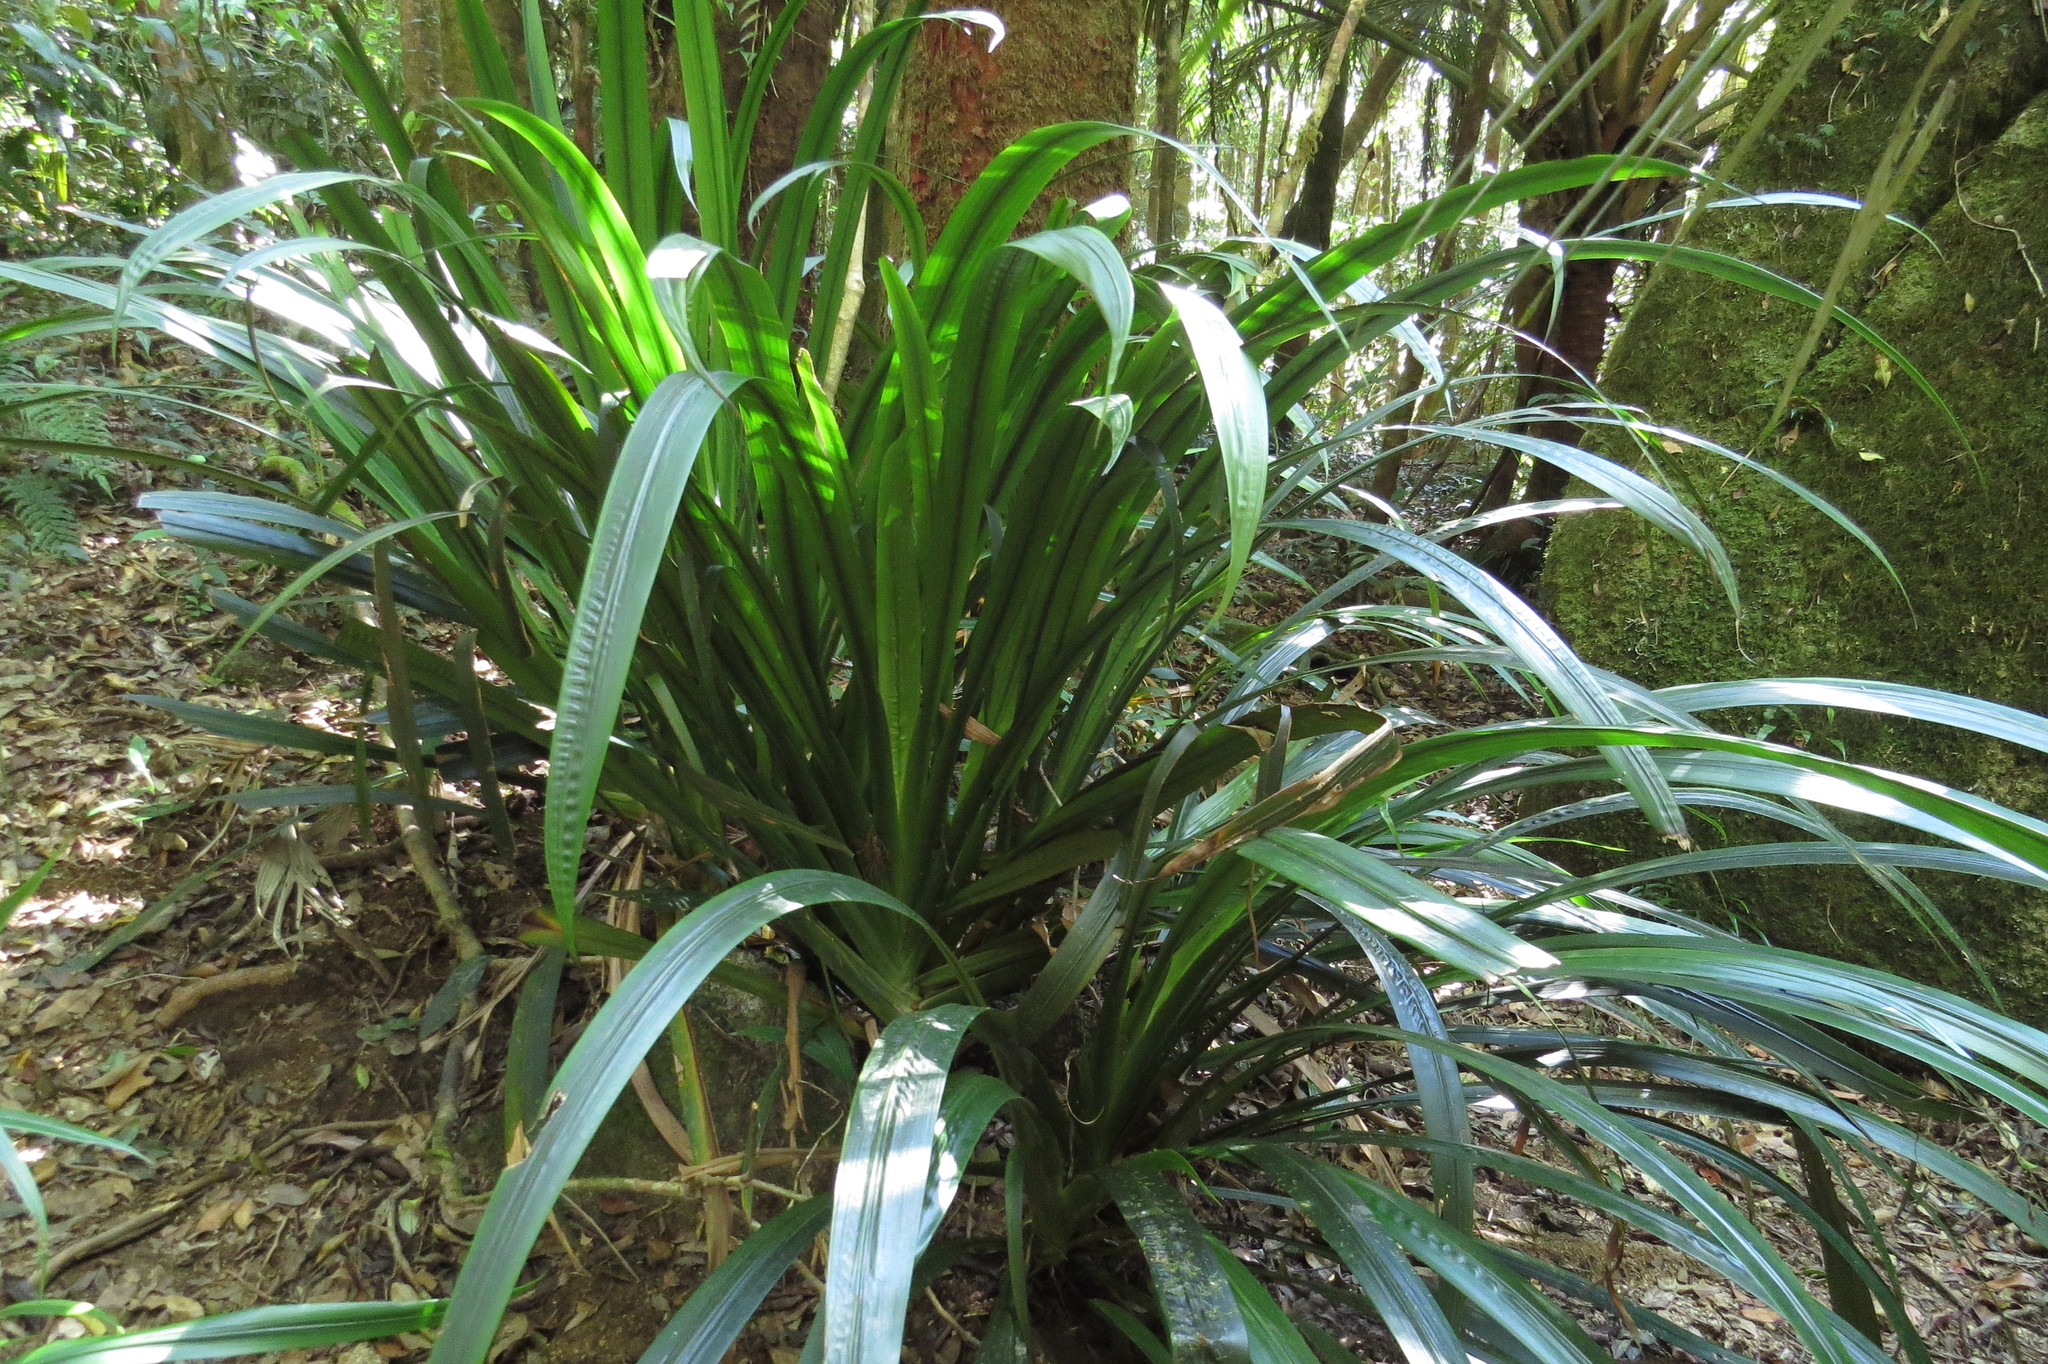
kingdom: Plantae
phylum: Tracheophyta
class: Liliopsida
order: Commelinales
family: Philydraceae
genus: Helmholtzia
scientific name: Helmholtzia acorifolia
